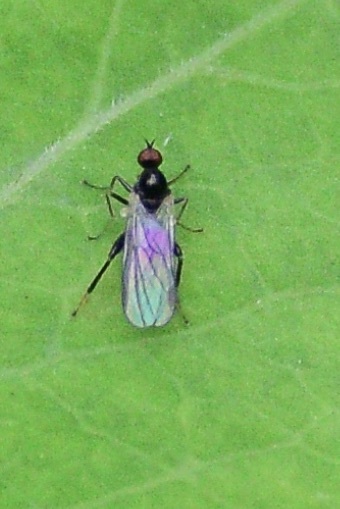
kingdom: Animalia
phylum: Arthropoda
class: Insecta
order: Diptera
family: Hybotidae
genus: Hybos
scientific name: Hybos reversus
